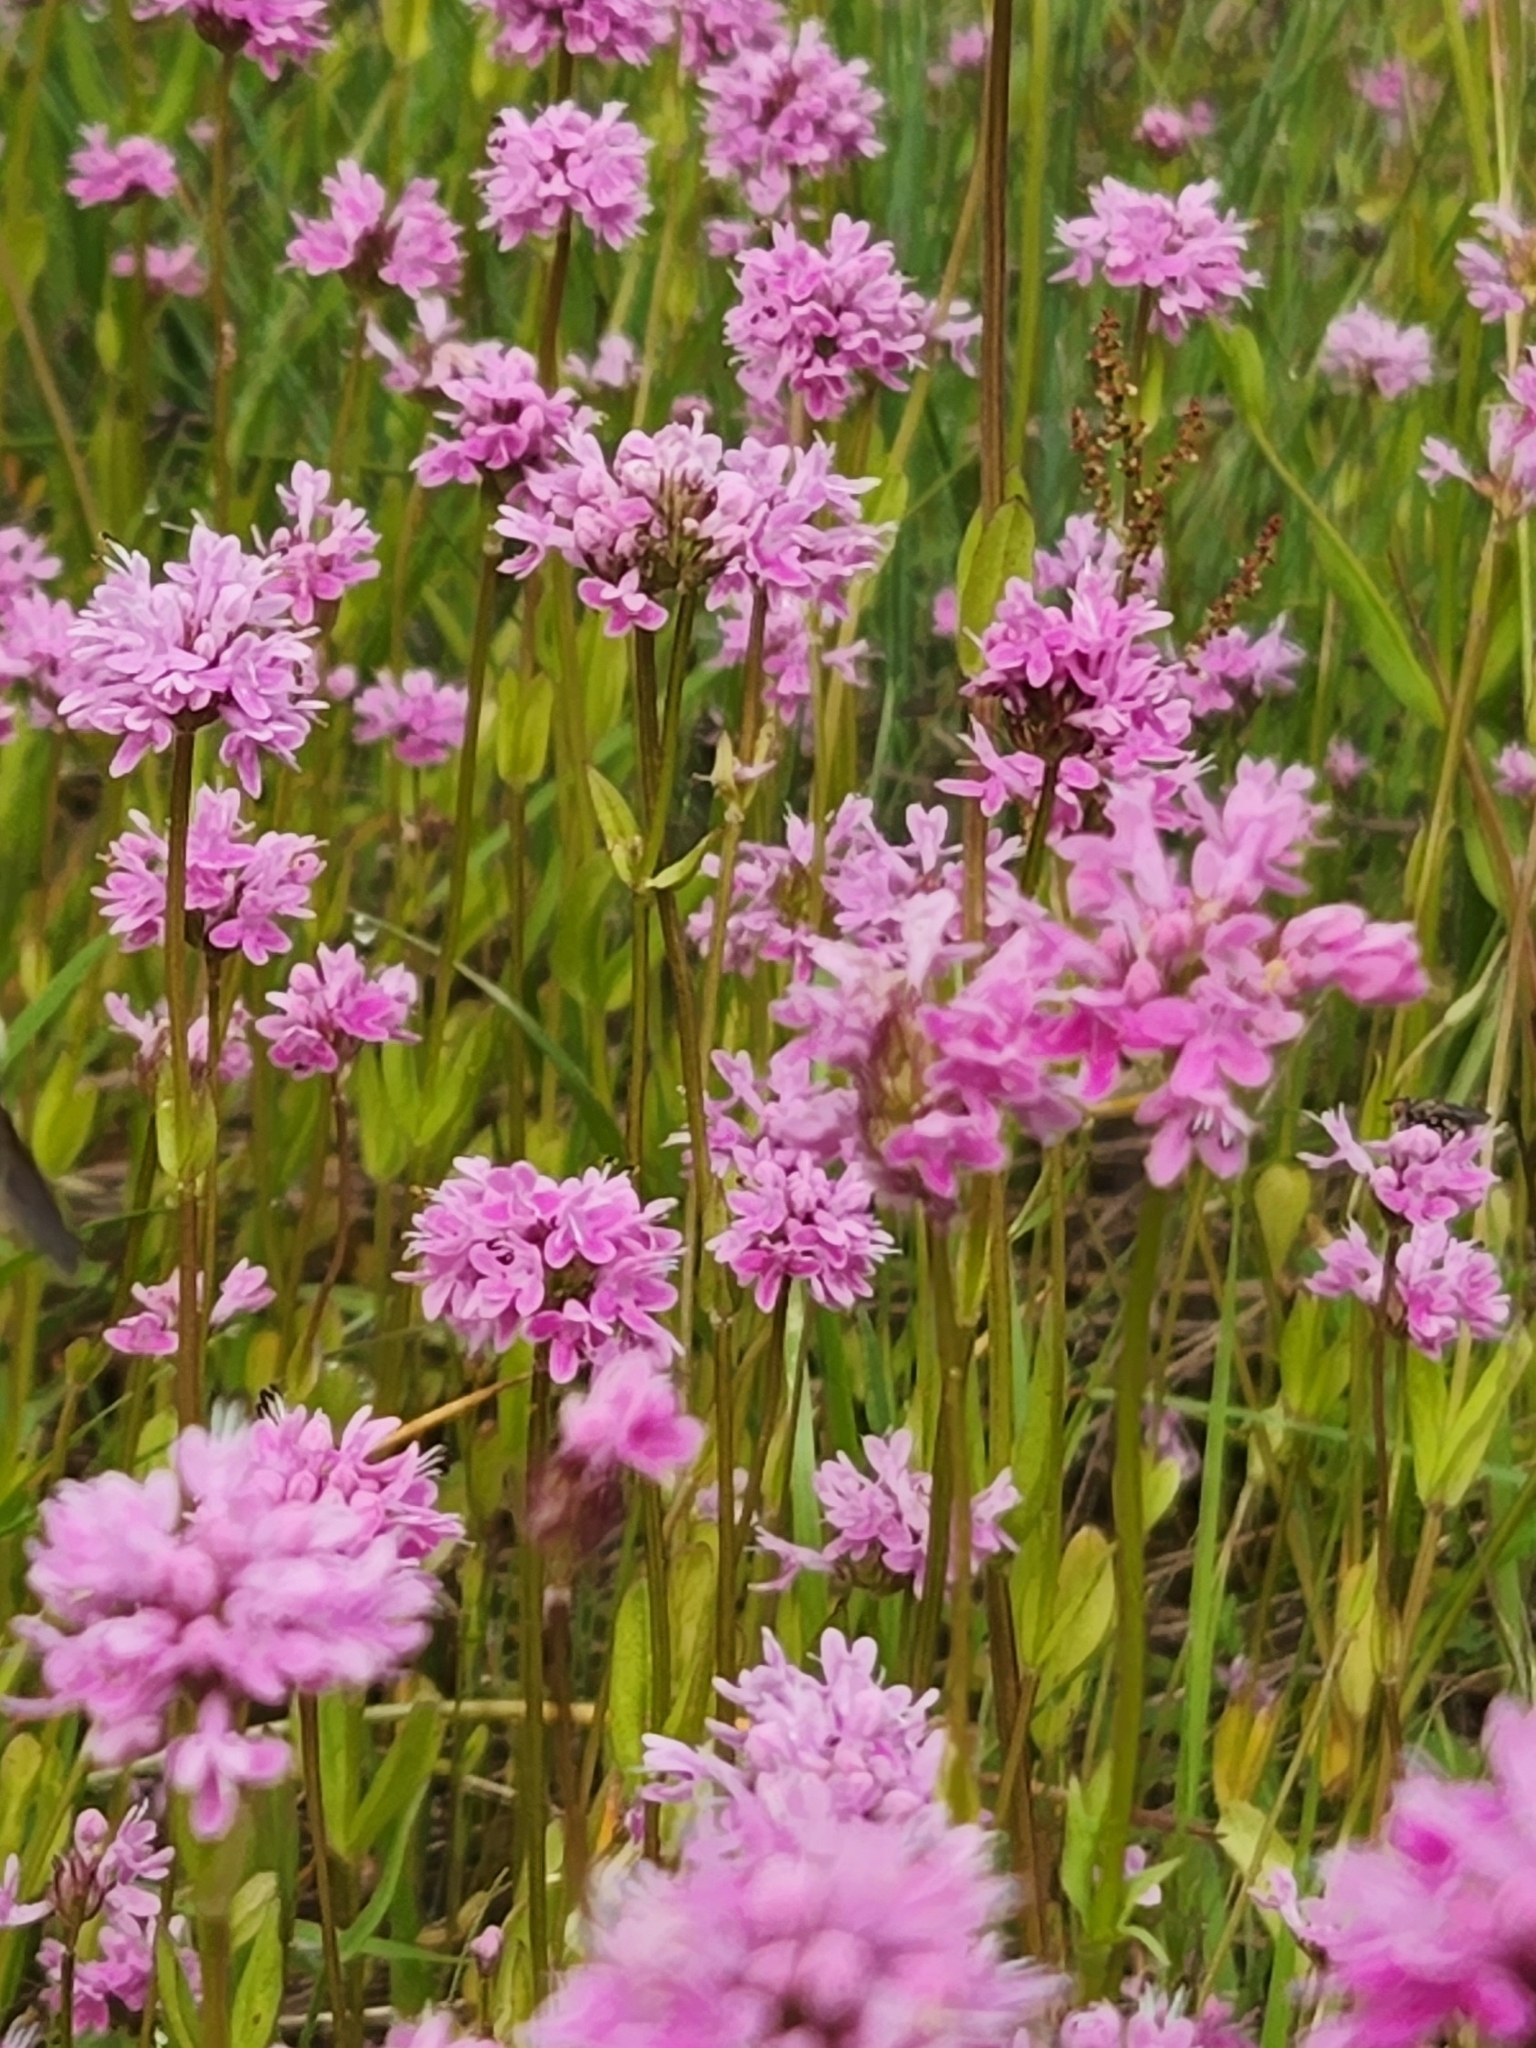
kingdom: Plantae
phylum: Tracheophyta
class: Magnoliopsida
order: Dipsacales
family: Caprifoliaceae
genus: Plectritis
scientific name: Plectritis congesta
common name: Pink plectritis
